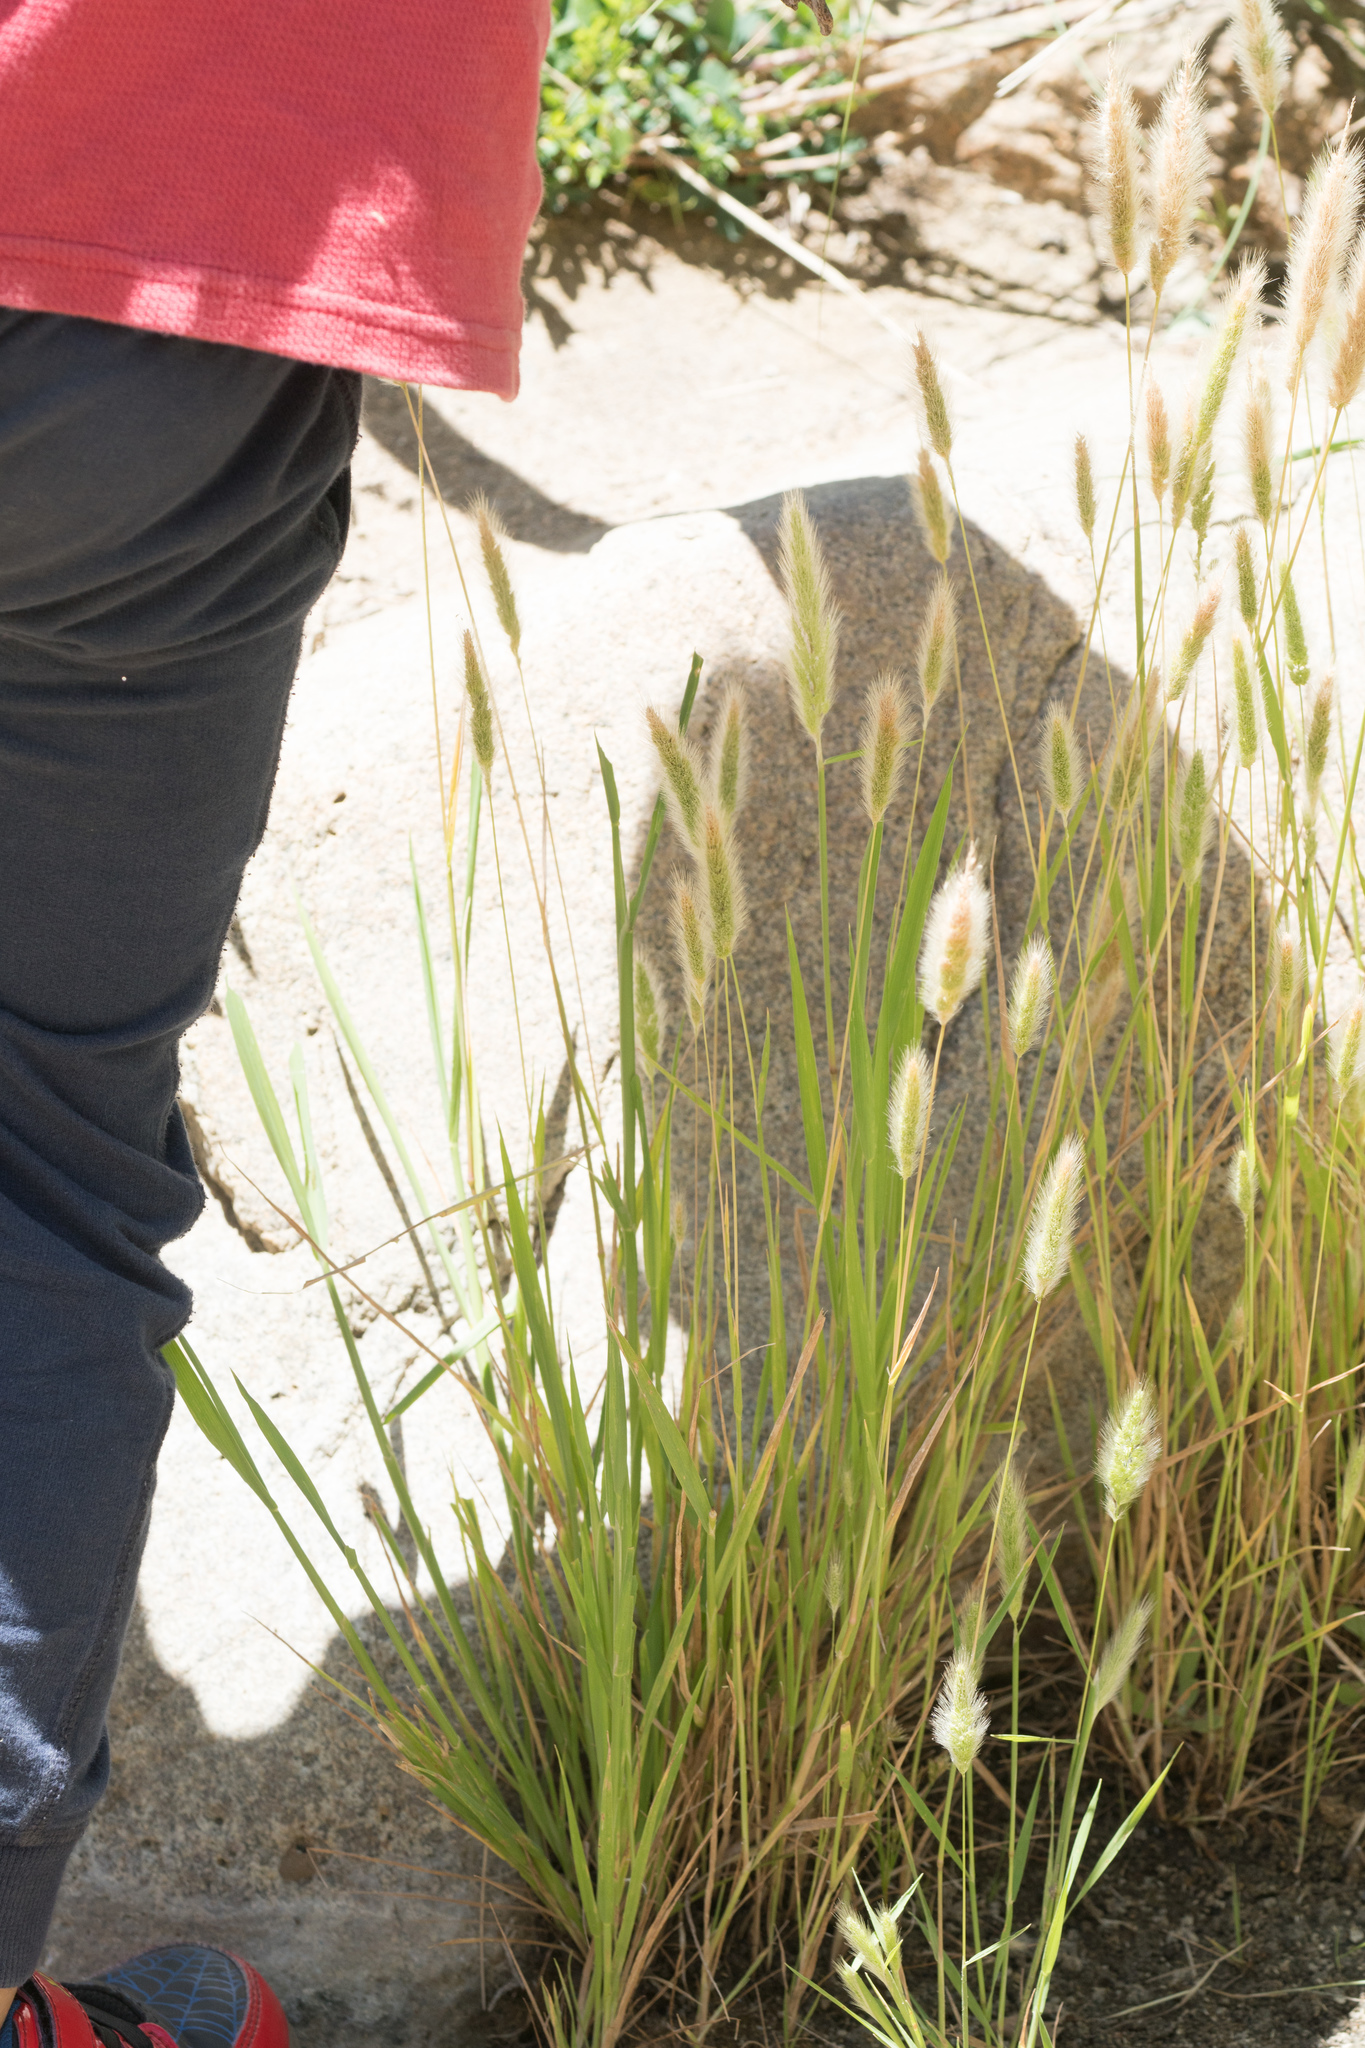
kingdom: Plantae
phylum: Tracheophyta
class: Liliopsida
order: Poales
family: Poaceae
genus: Polypogon
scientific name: Polypogon monspeliensis
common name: Annual rabbitsfoot grass
